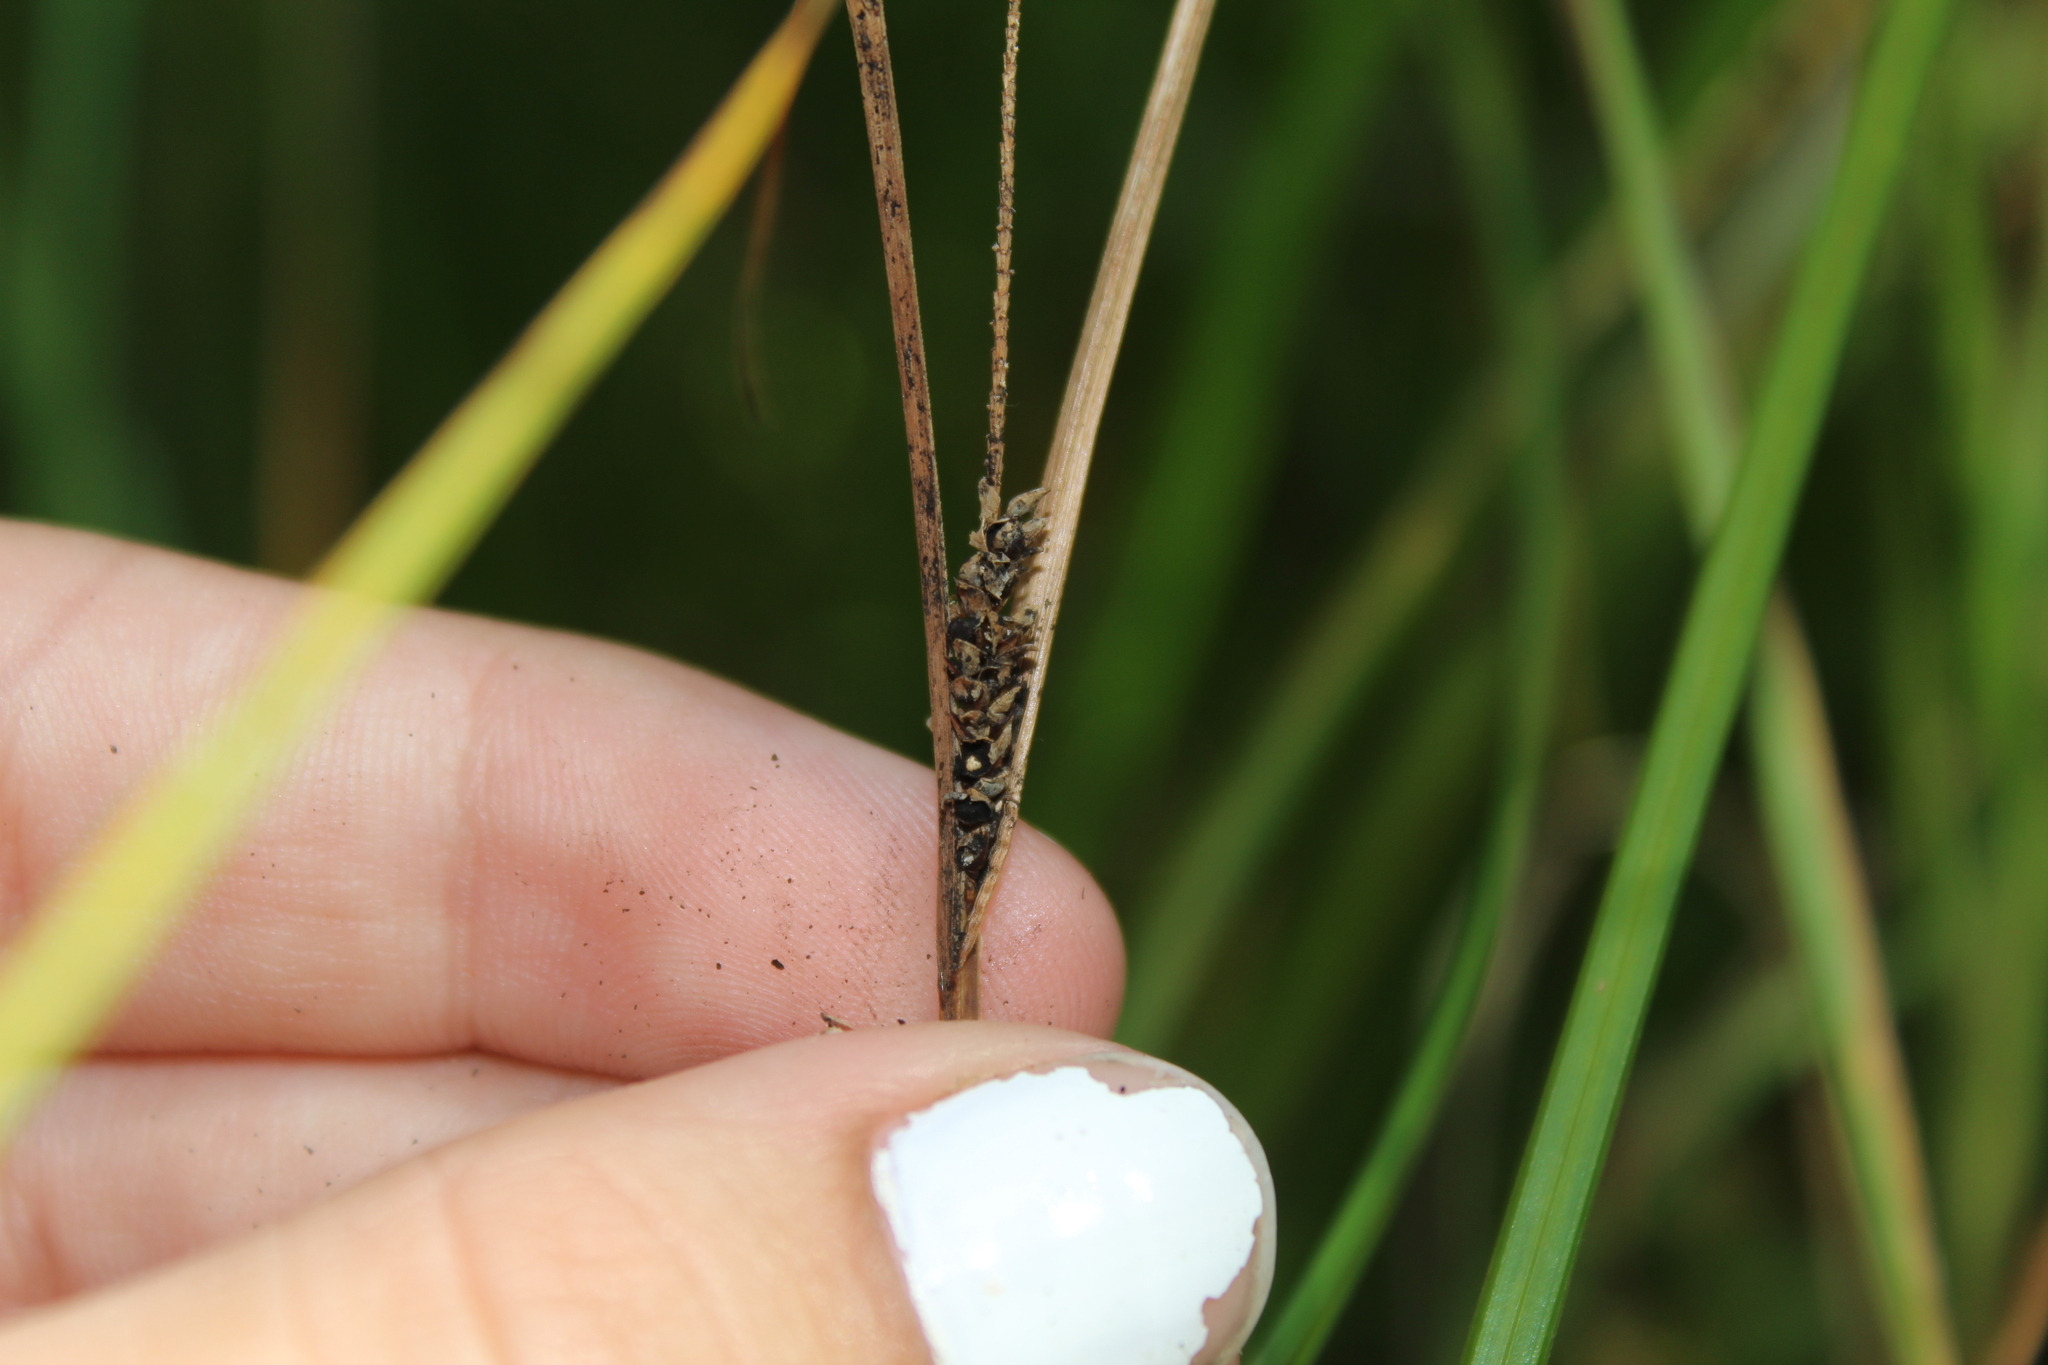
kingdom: Plantae
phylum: Tracheophyta
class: Liliopsida
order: Poales
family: Cyperaceae
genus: Carex
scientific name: Carex lasiocarpa
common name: Slender sedge
